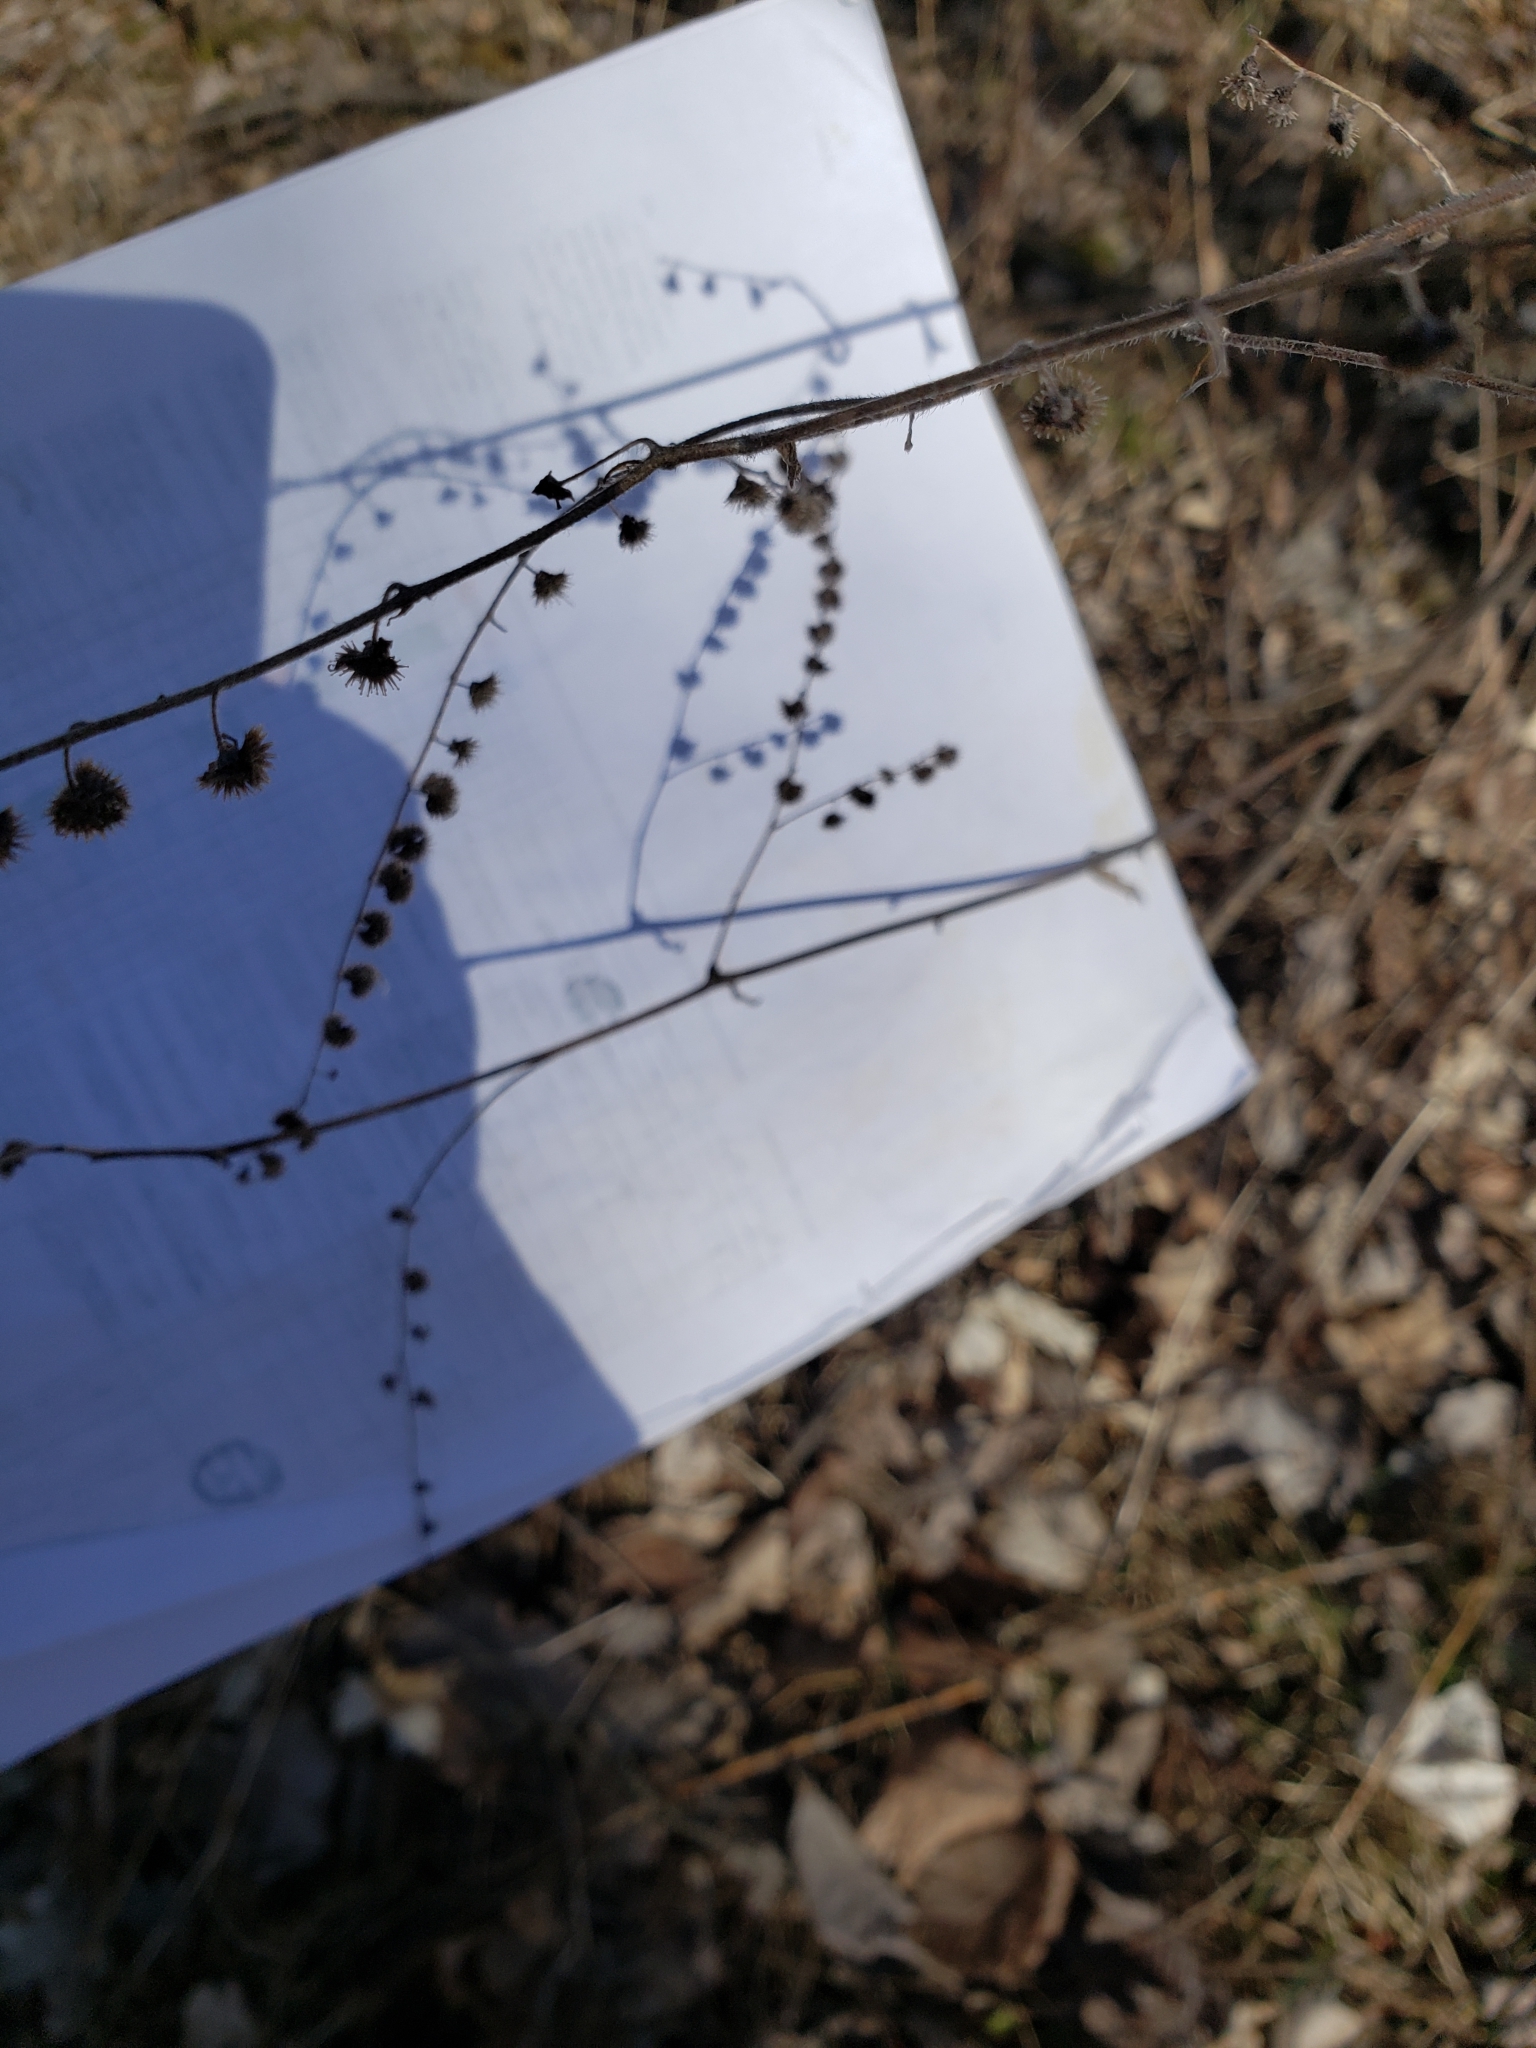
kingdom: Plantae
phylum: Tracheophyta
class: Magnoliopsida
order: Boraginales
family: Boraginaceae
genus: Hackelia
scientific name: Hackelia virginiana
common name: Beggar's-lice
